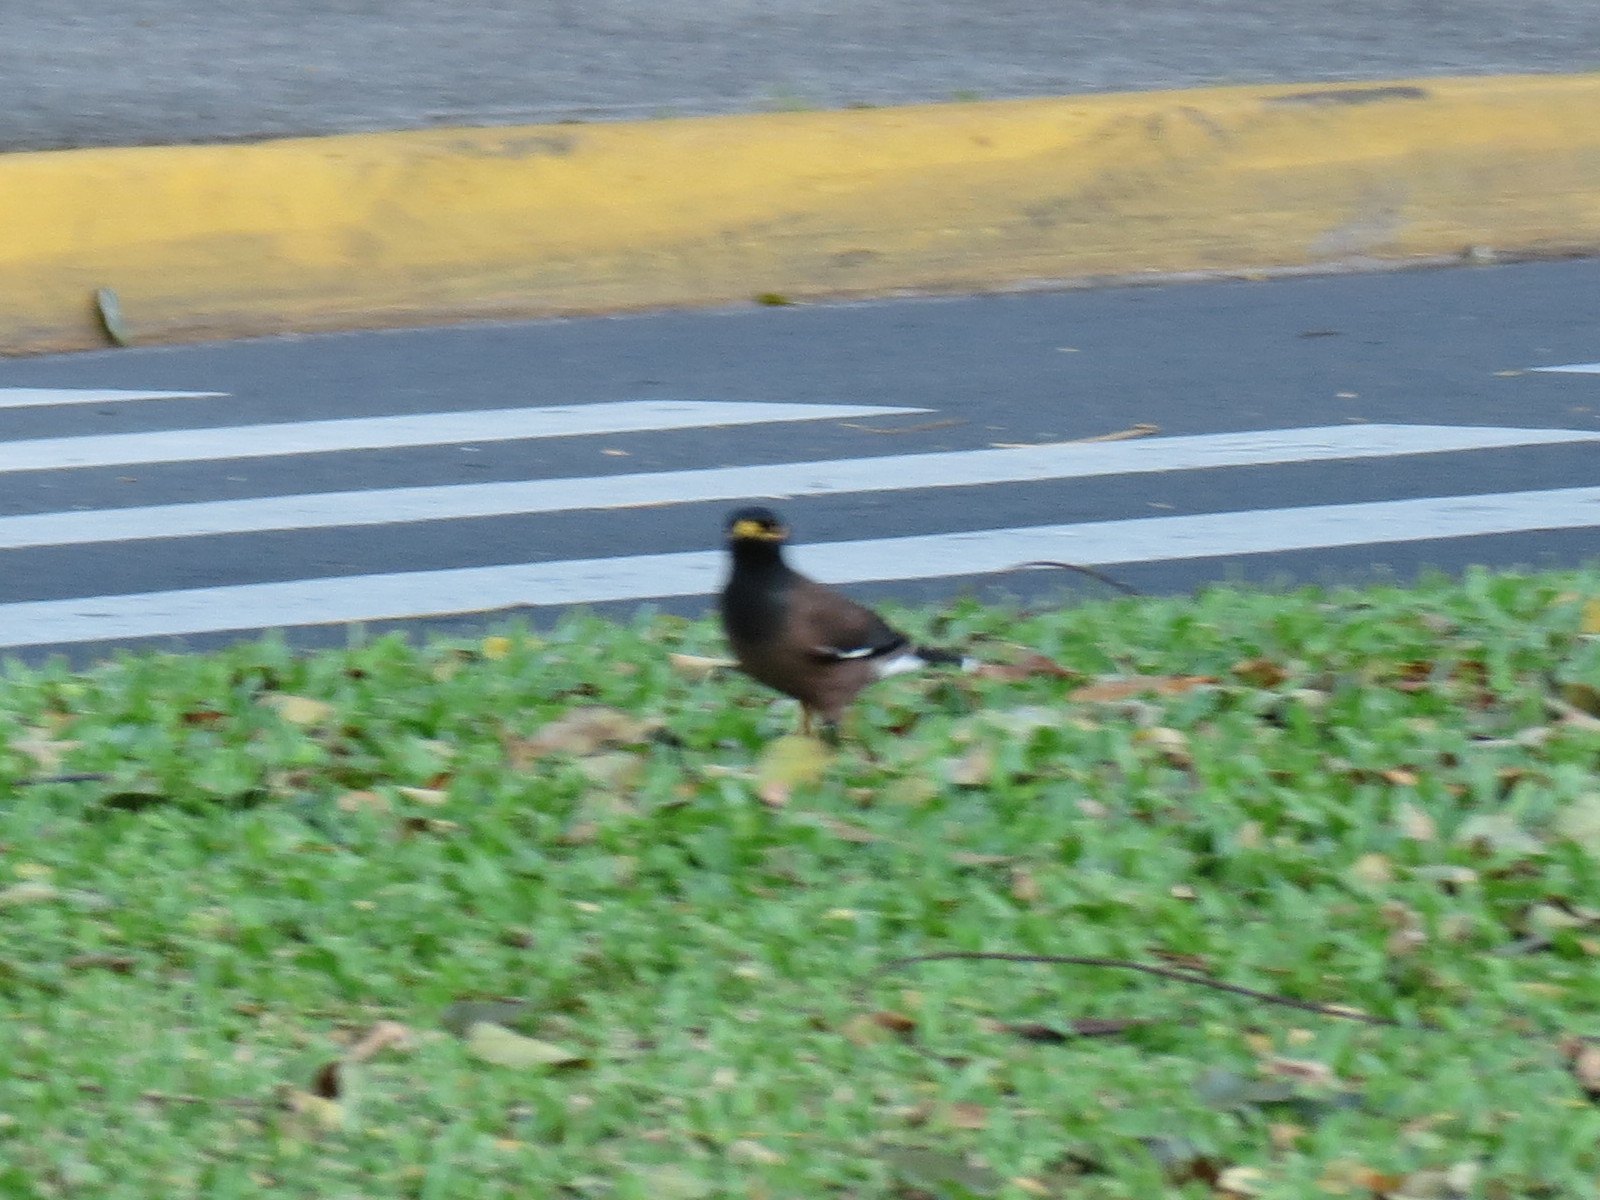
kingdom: Animalia
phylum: Chordata
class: Aves
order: Passeriformes
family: Sturnidae
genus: Acridotheres
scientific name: Acridotheres tristis
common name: Common myna
